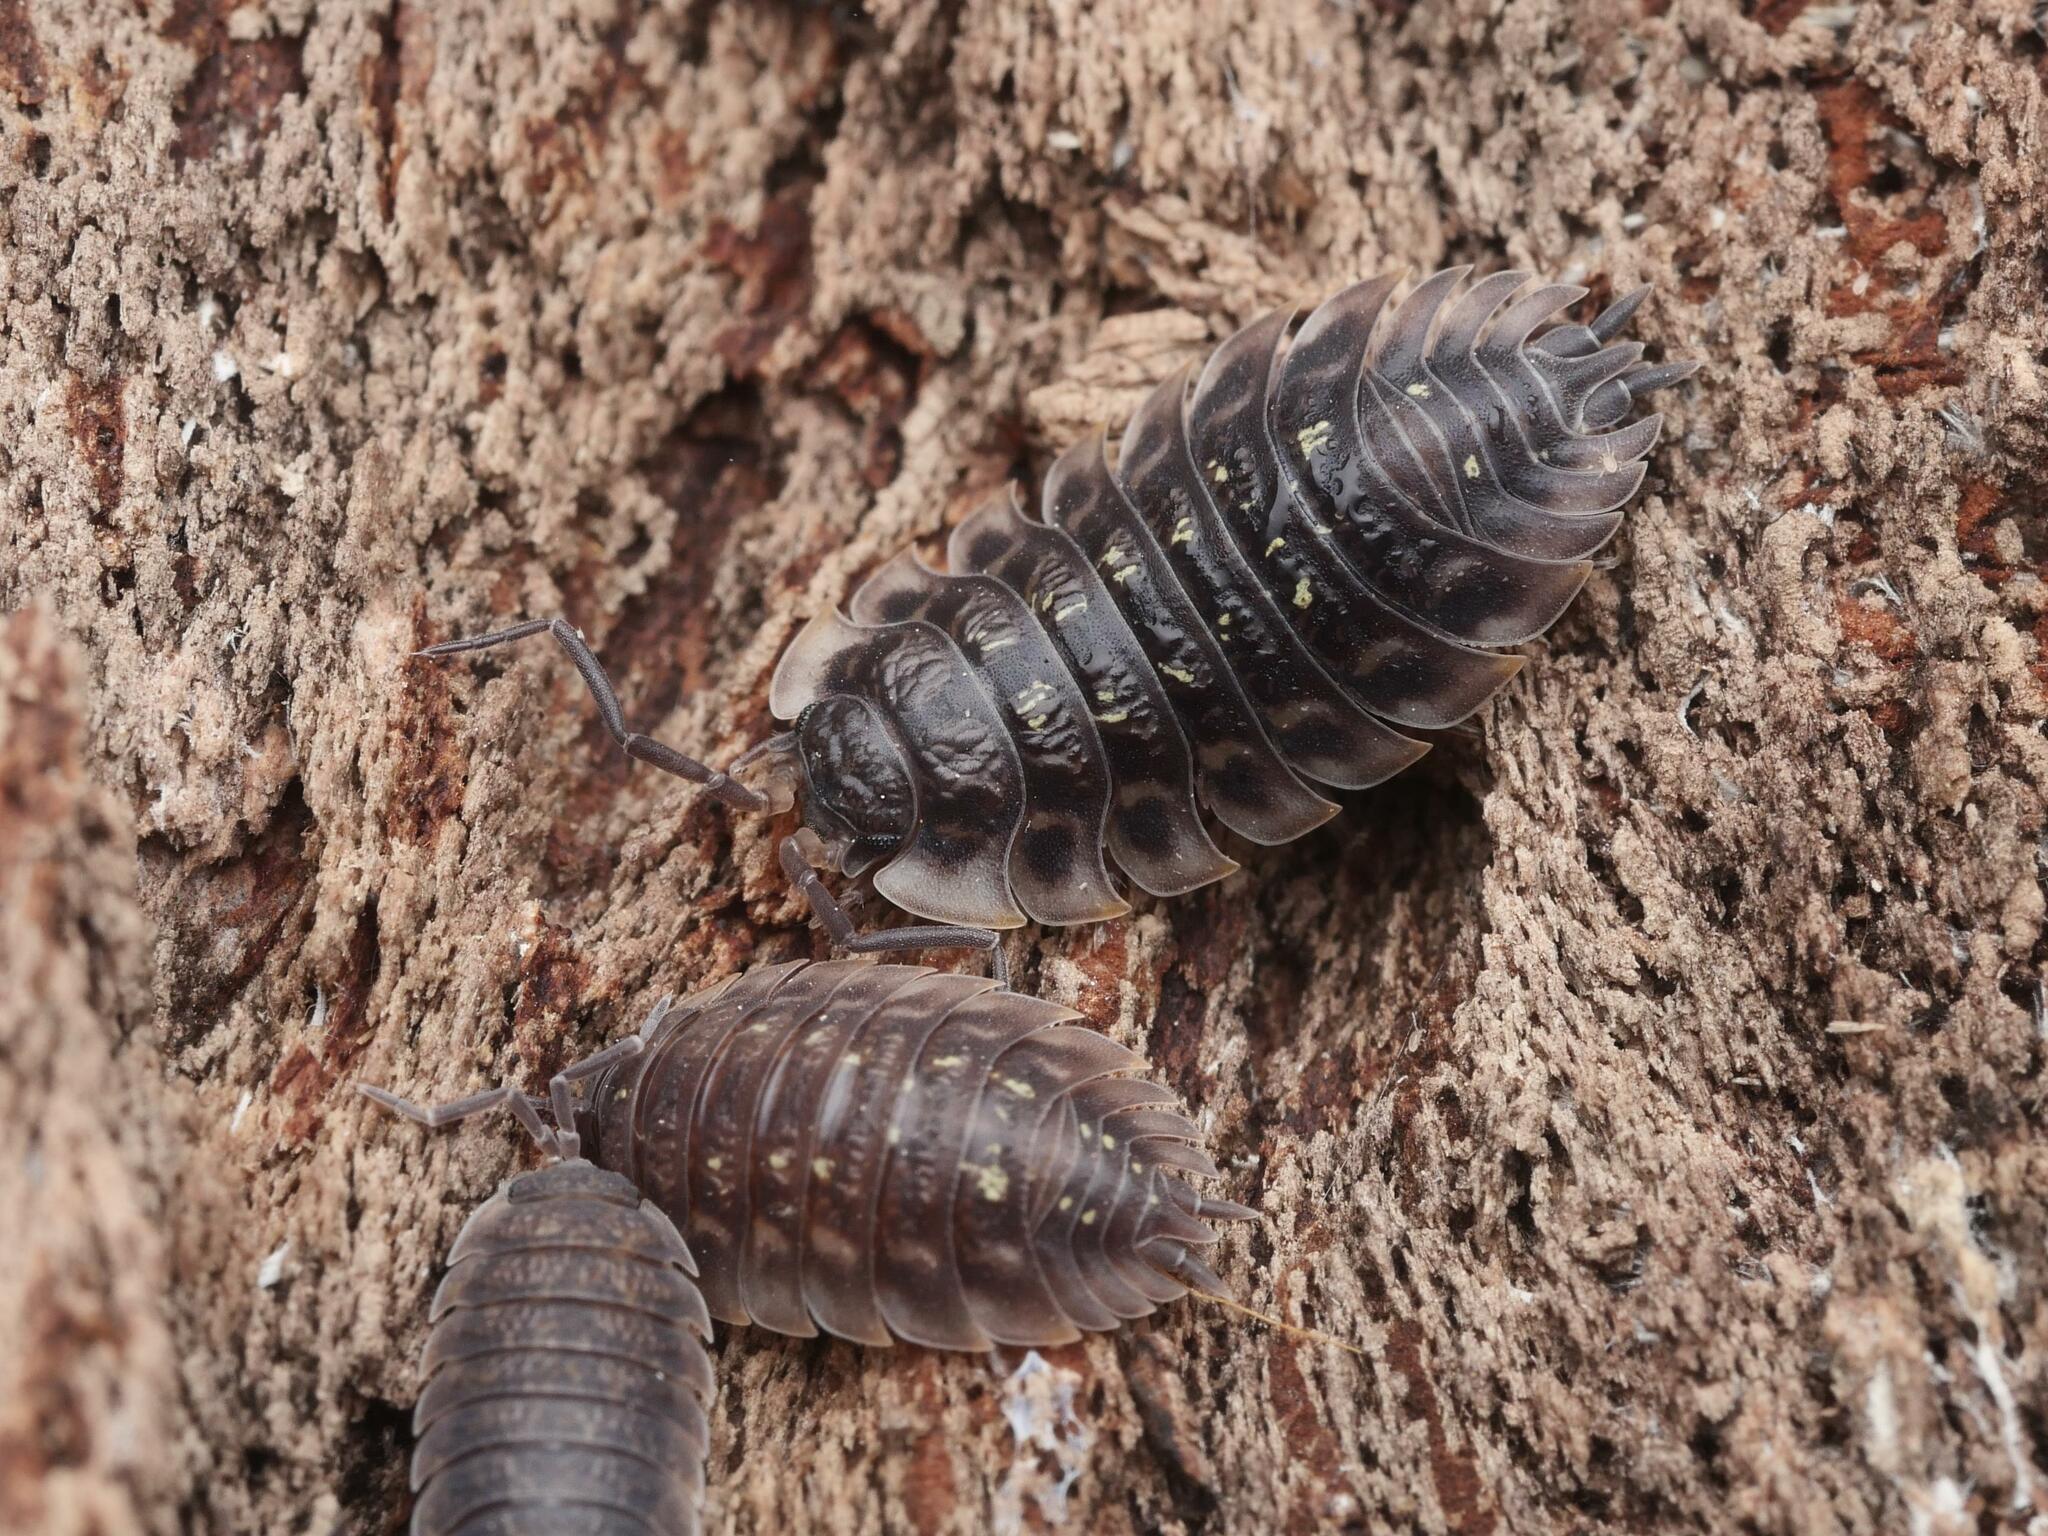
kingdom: Animalia
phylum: Arthropoda
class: Malacostraca
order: Isopoda
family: Oniscidae
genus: Oniscus
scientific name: Oniscus asellus
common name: Common shiny woodlouse
